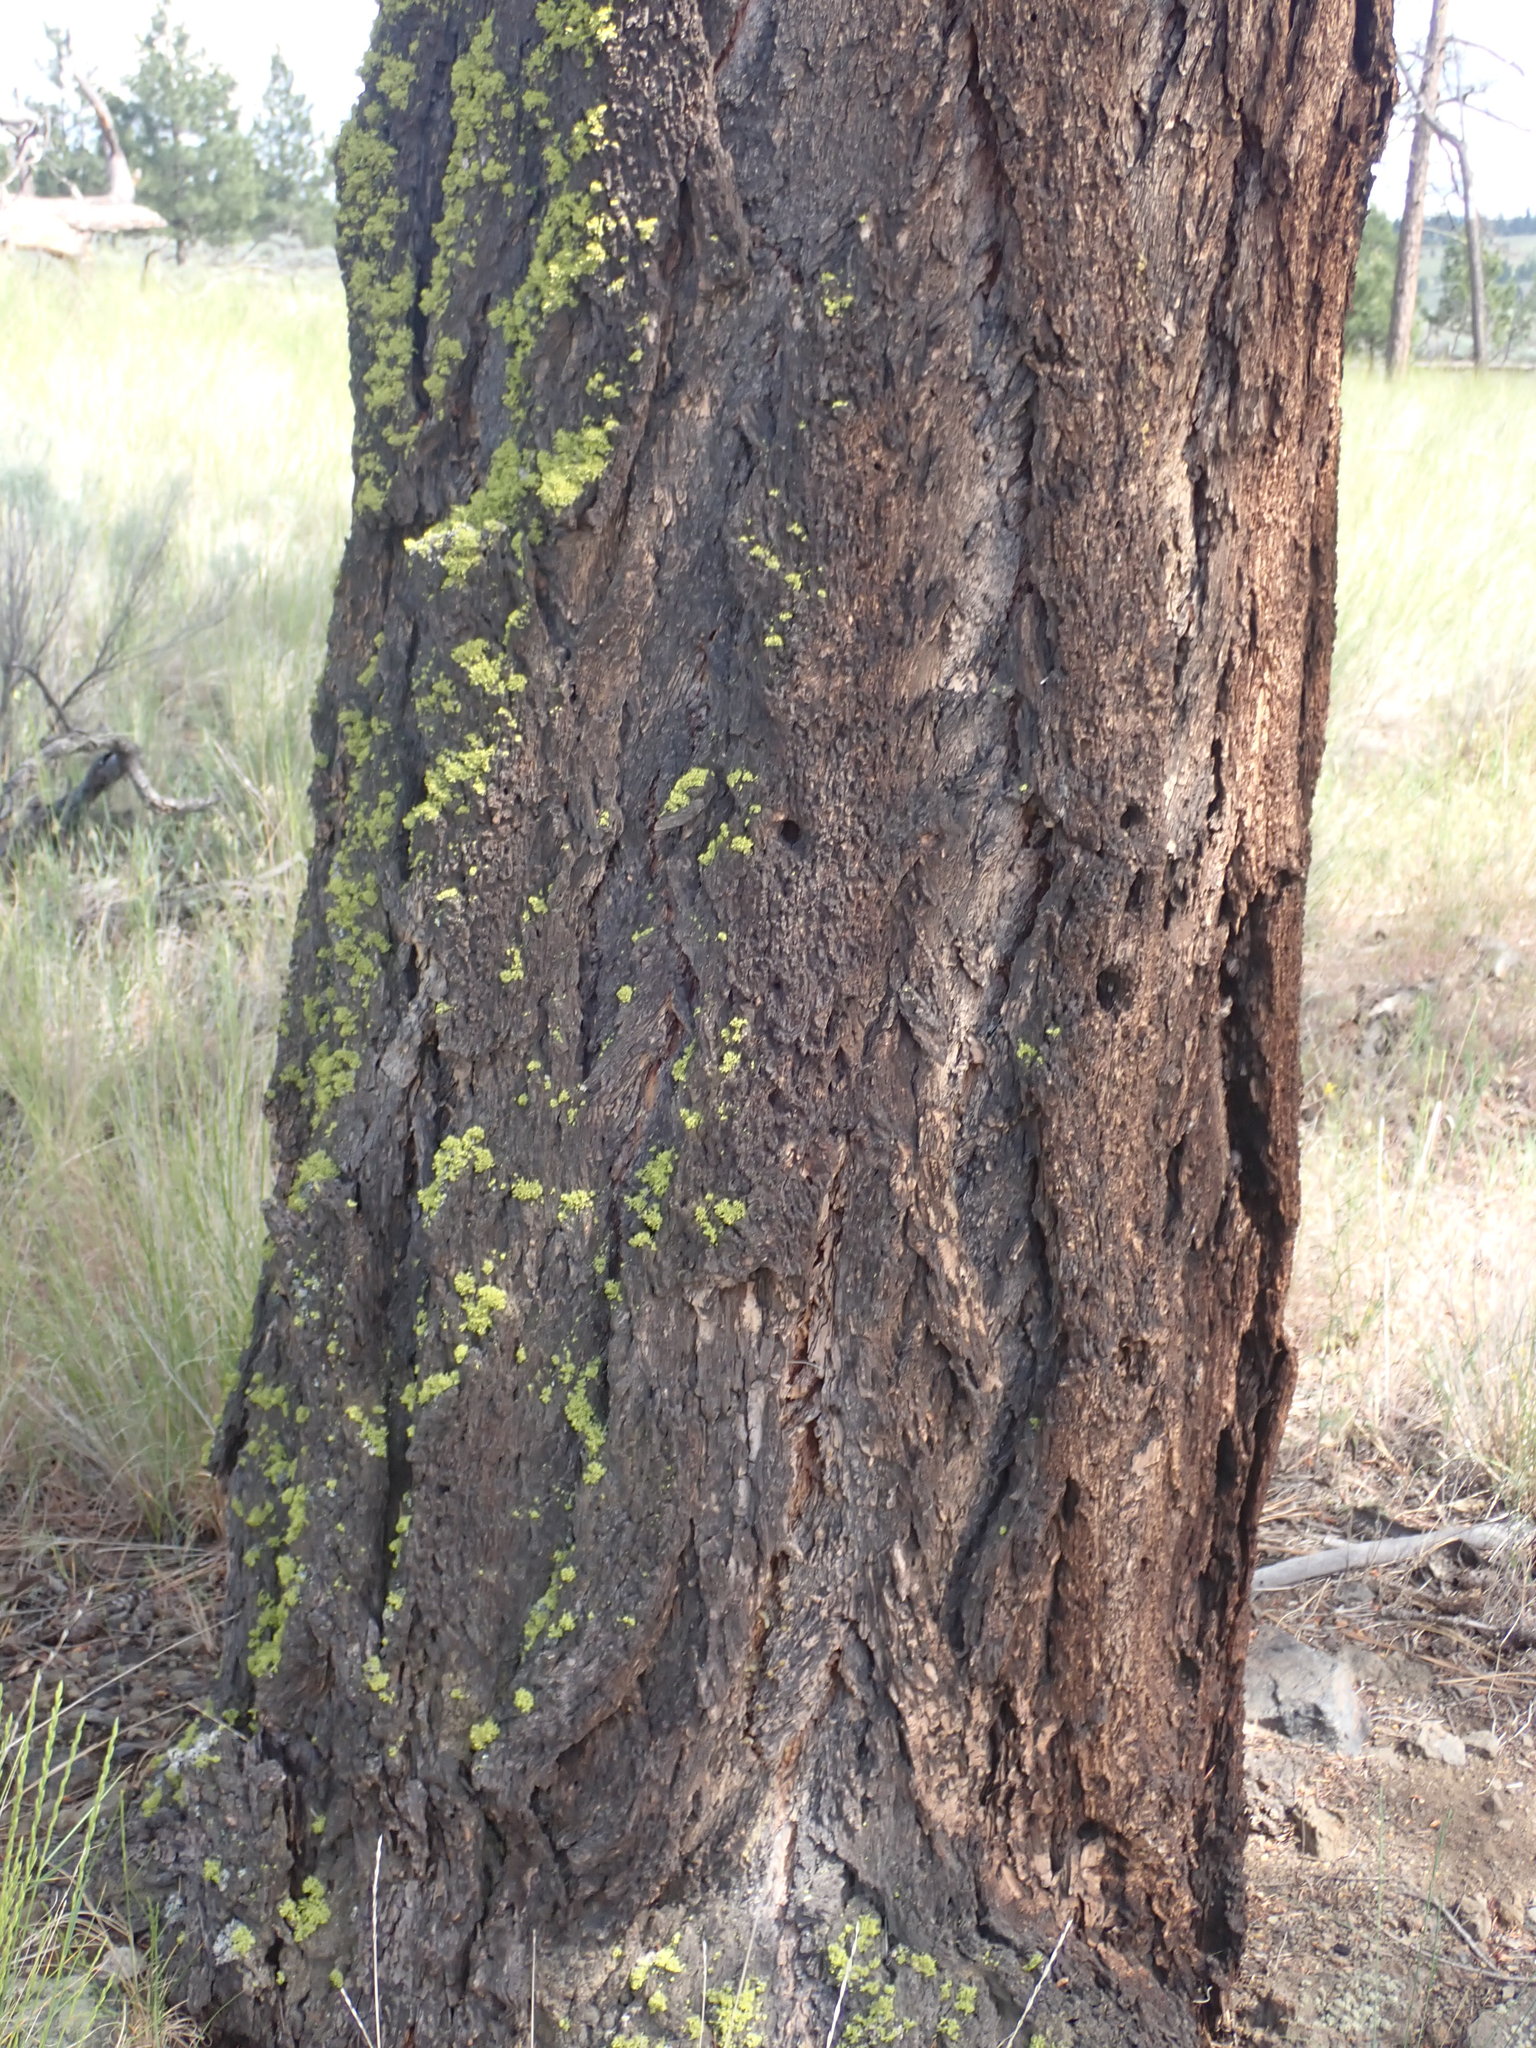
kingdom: Plantae
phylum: Tracheophyta
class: Pinopsida
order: Pinales
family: Pinaceae
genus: Pseudotsuga
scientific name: Pseudotsuga menziesii
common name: Douglas fir
